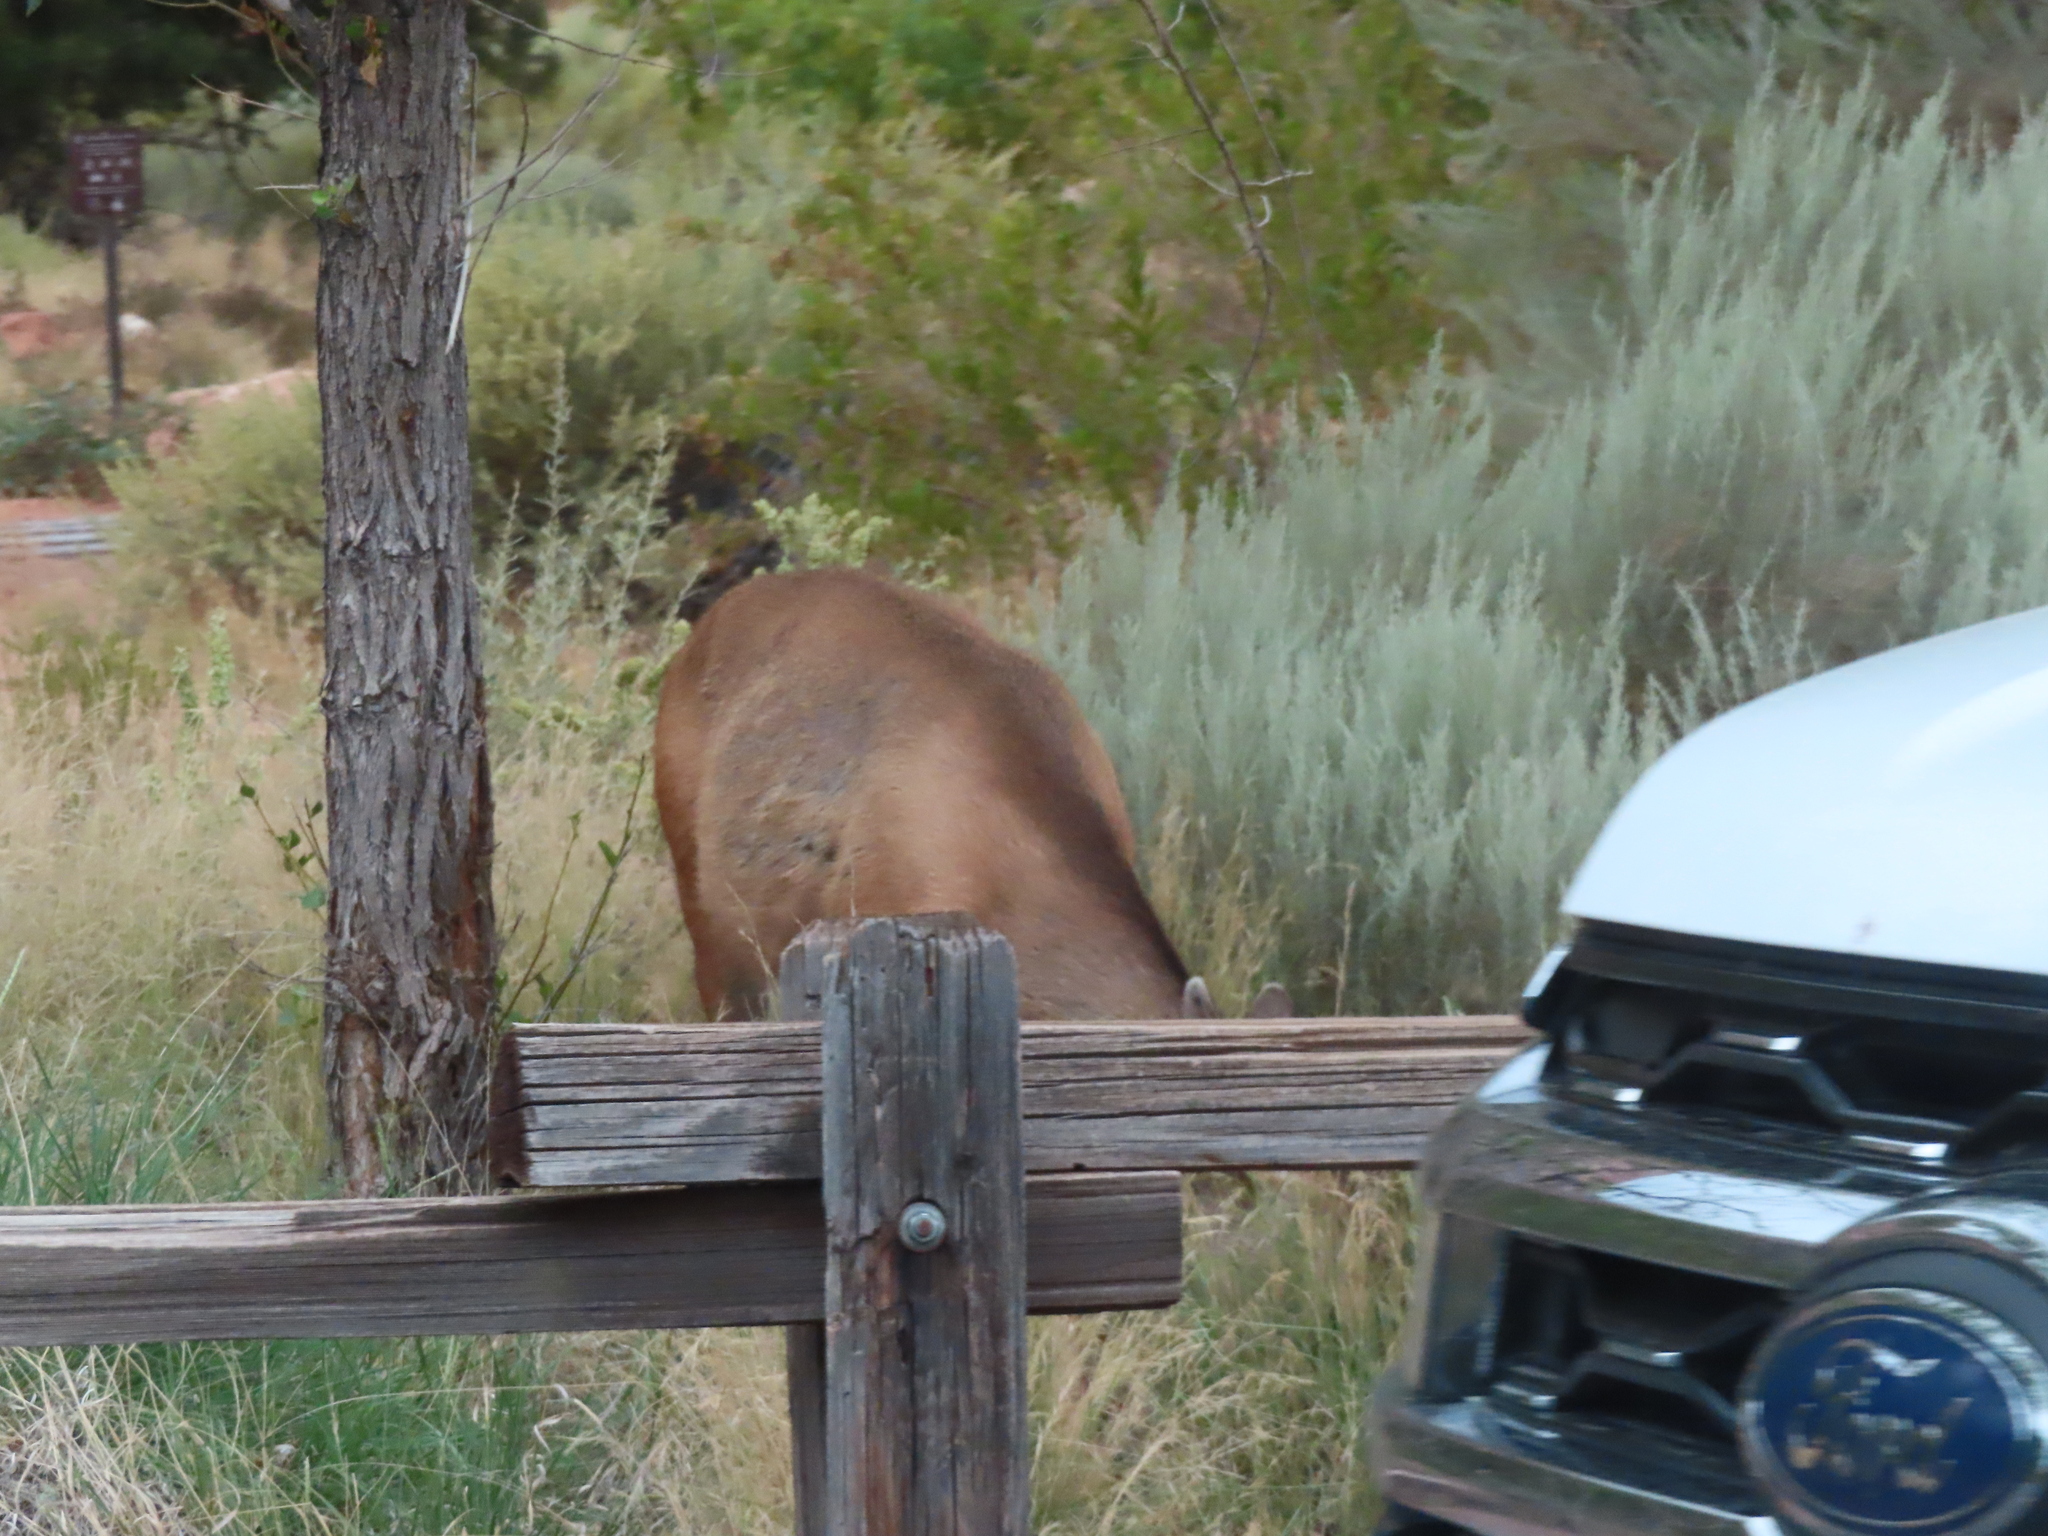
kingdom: Animalia
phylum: Chordata
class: Mammalia
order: Artiodactyla
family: Cervidae
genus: Odocoileus
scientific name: Odocoileus hemionus
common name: Mule deer
